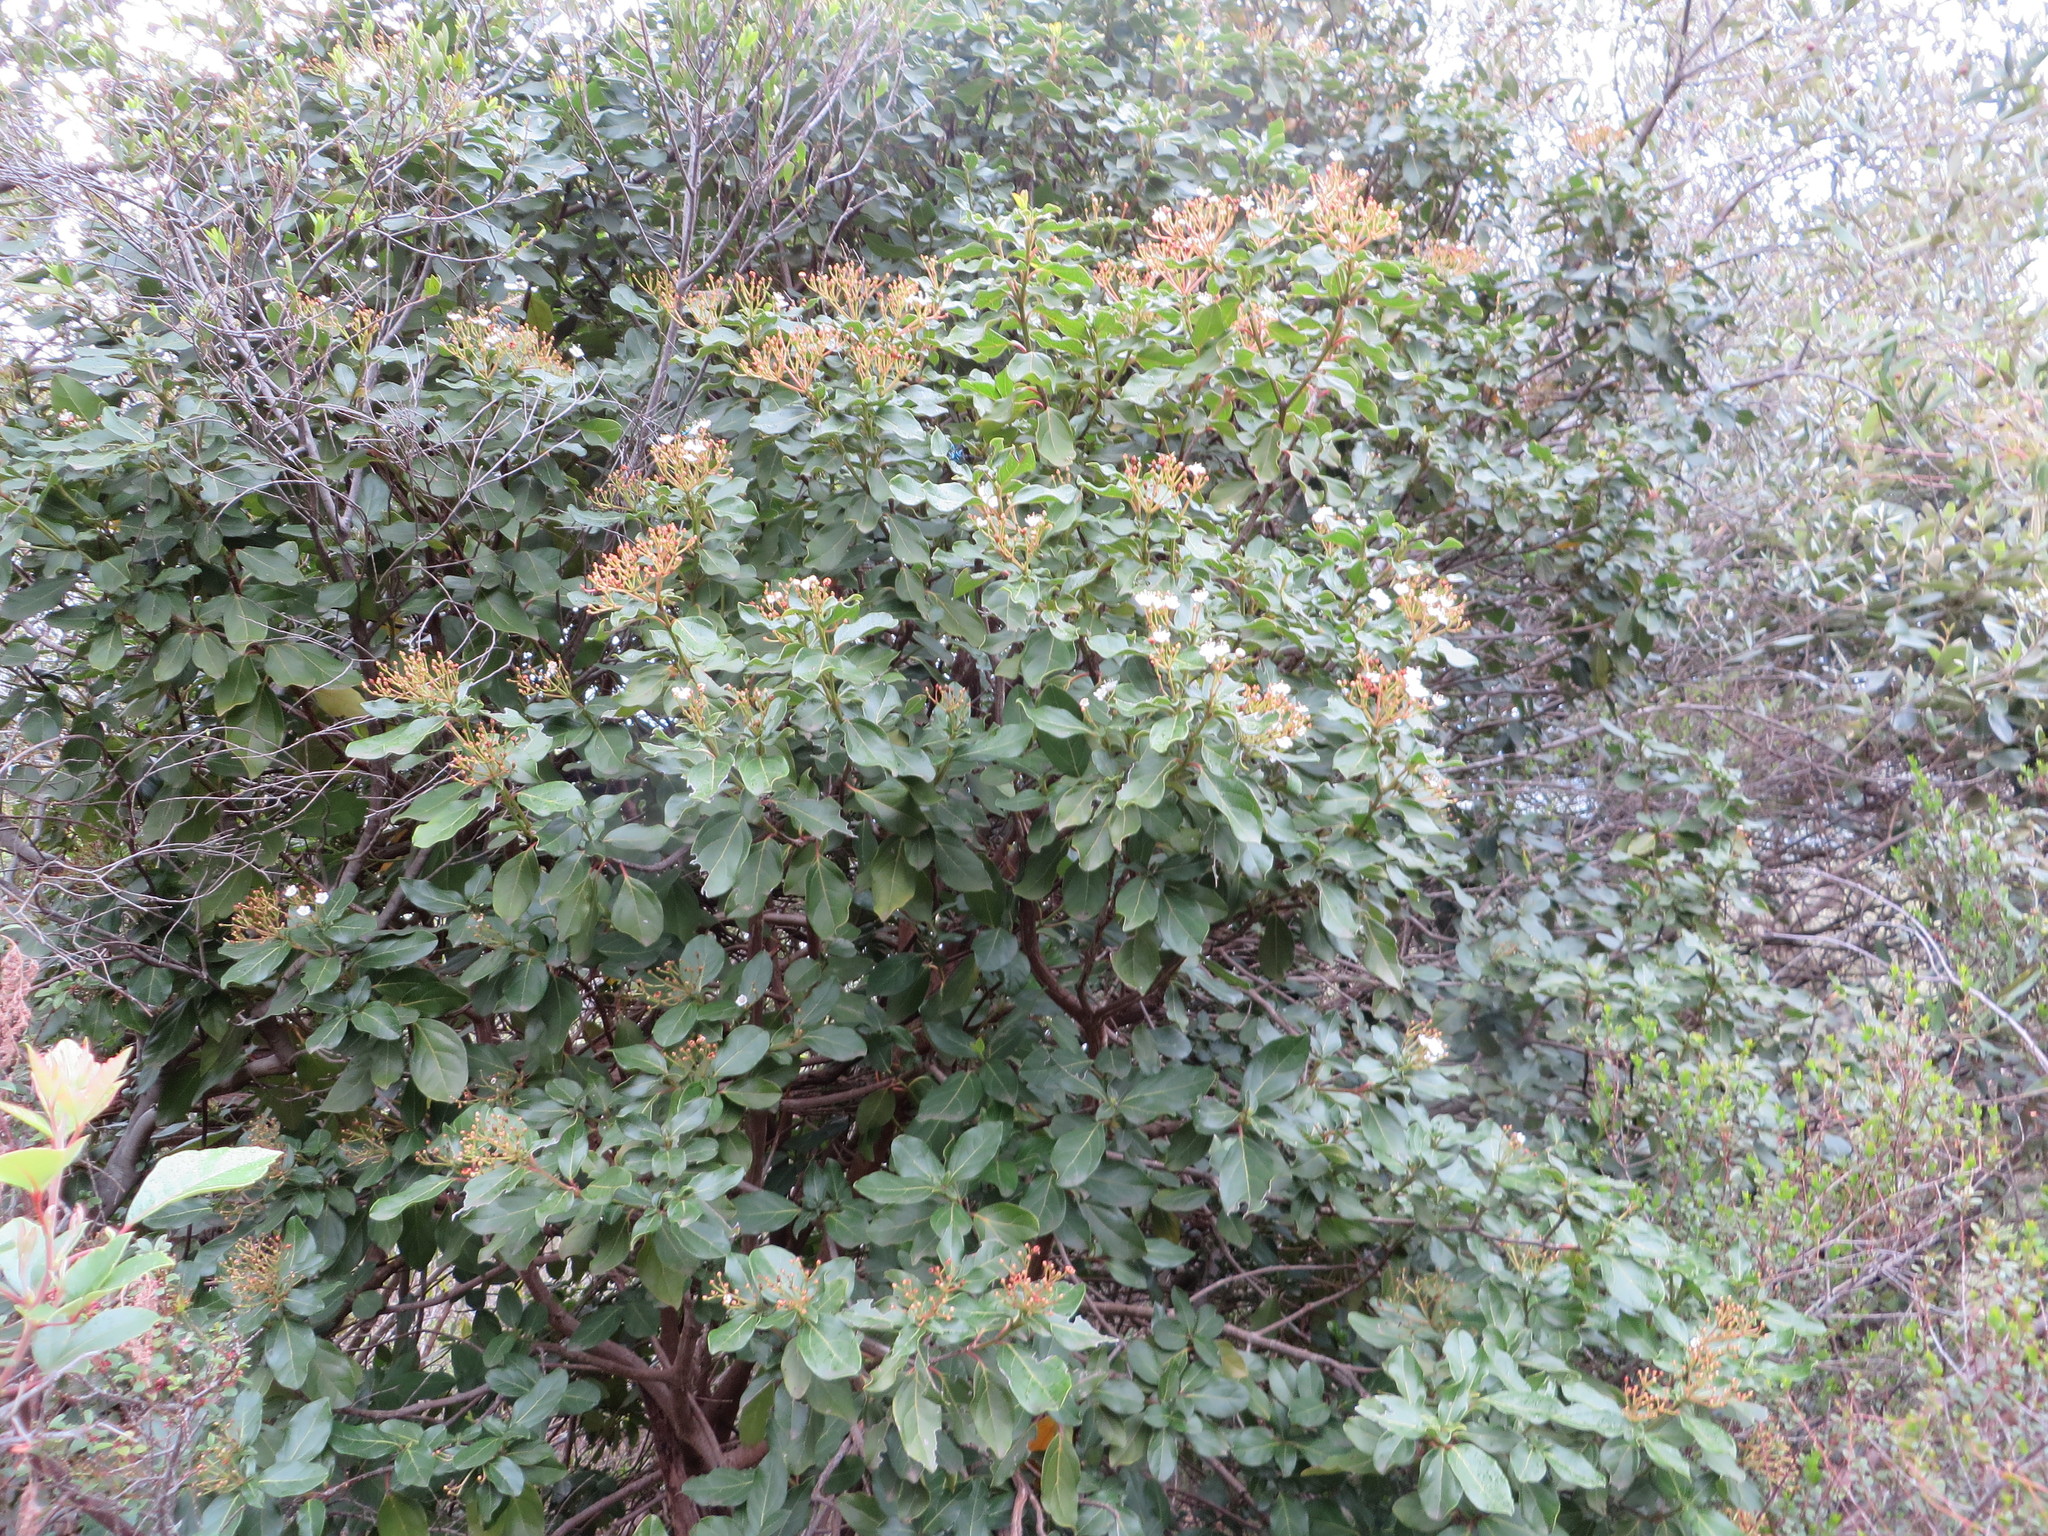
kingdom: Plantae
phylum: Tracheophyta
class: Magnoliopsida
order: Dipsacales
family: Viburnaceae
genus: Viburnum
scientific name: Viburnum tinus
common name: Laurustinus
